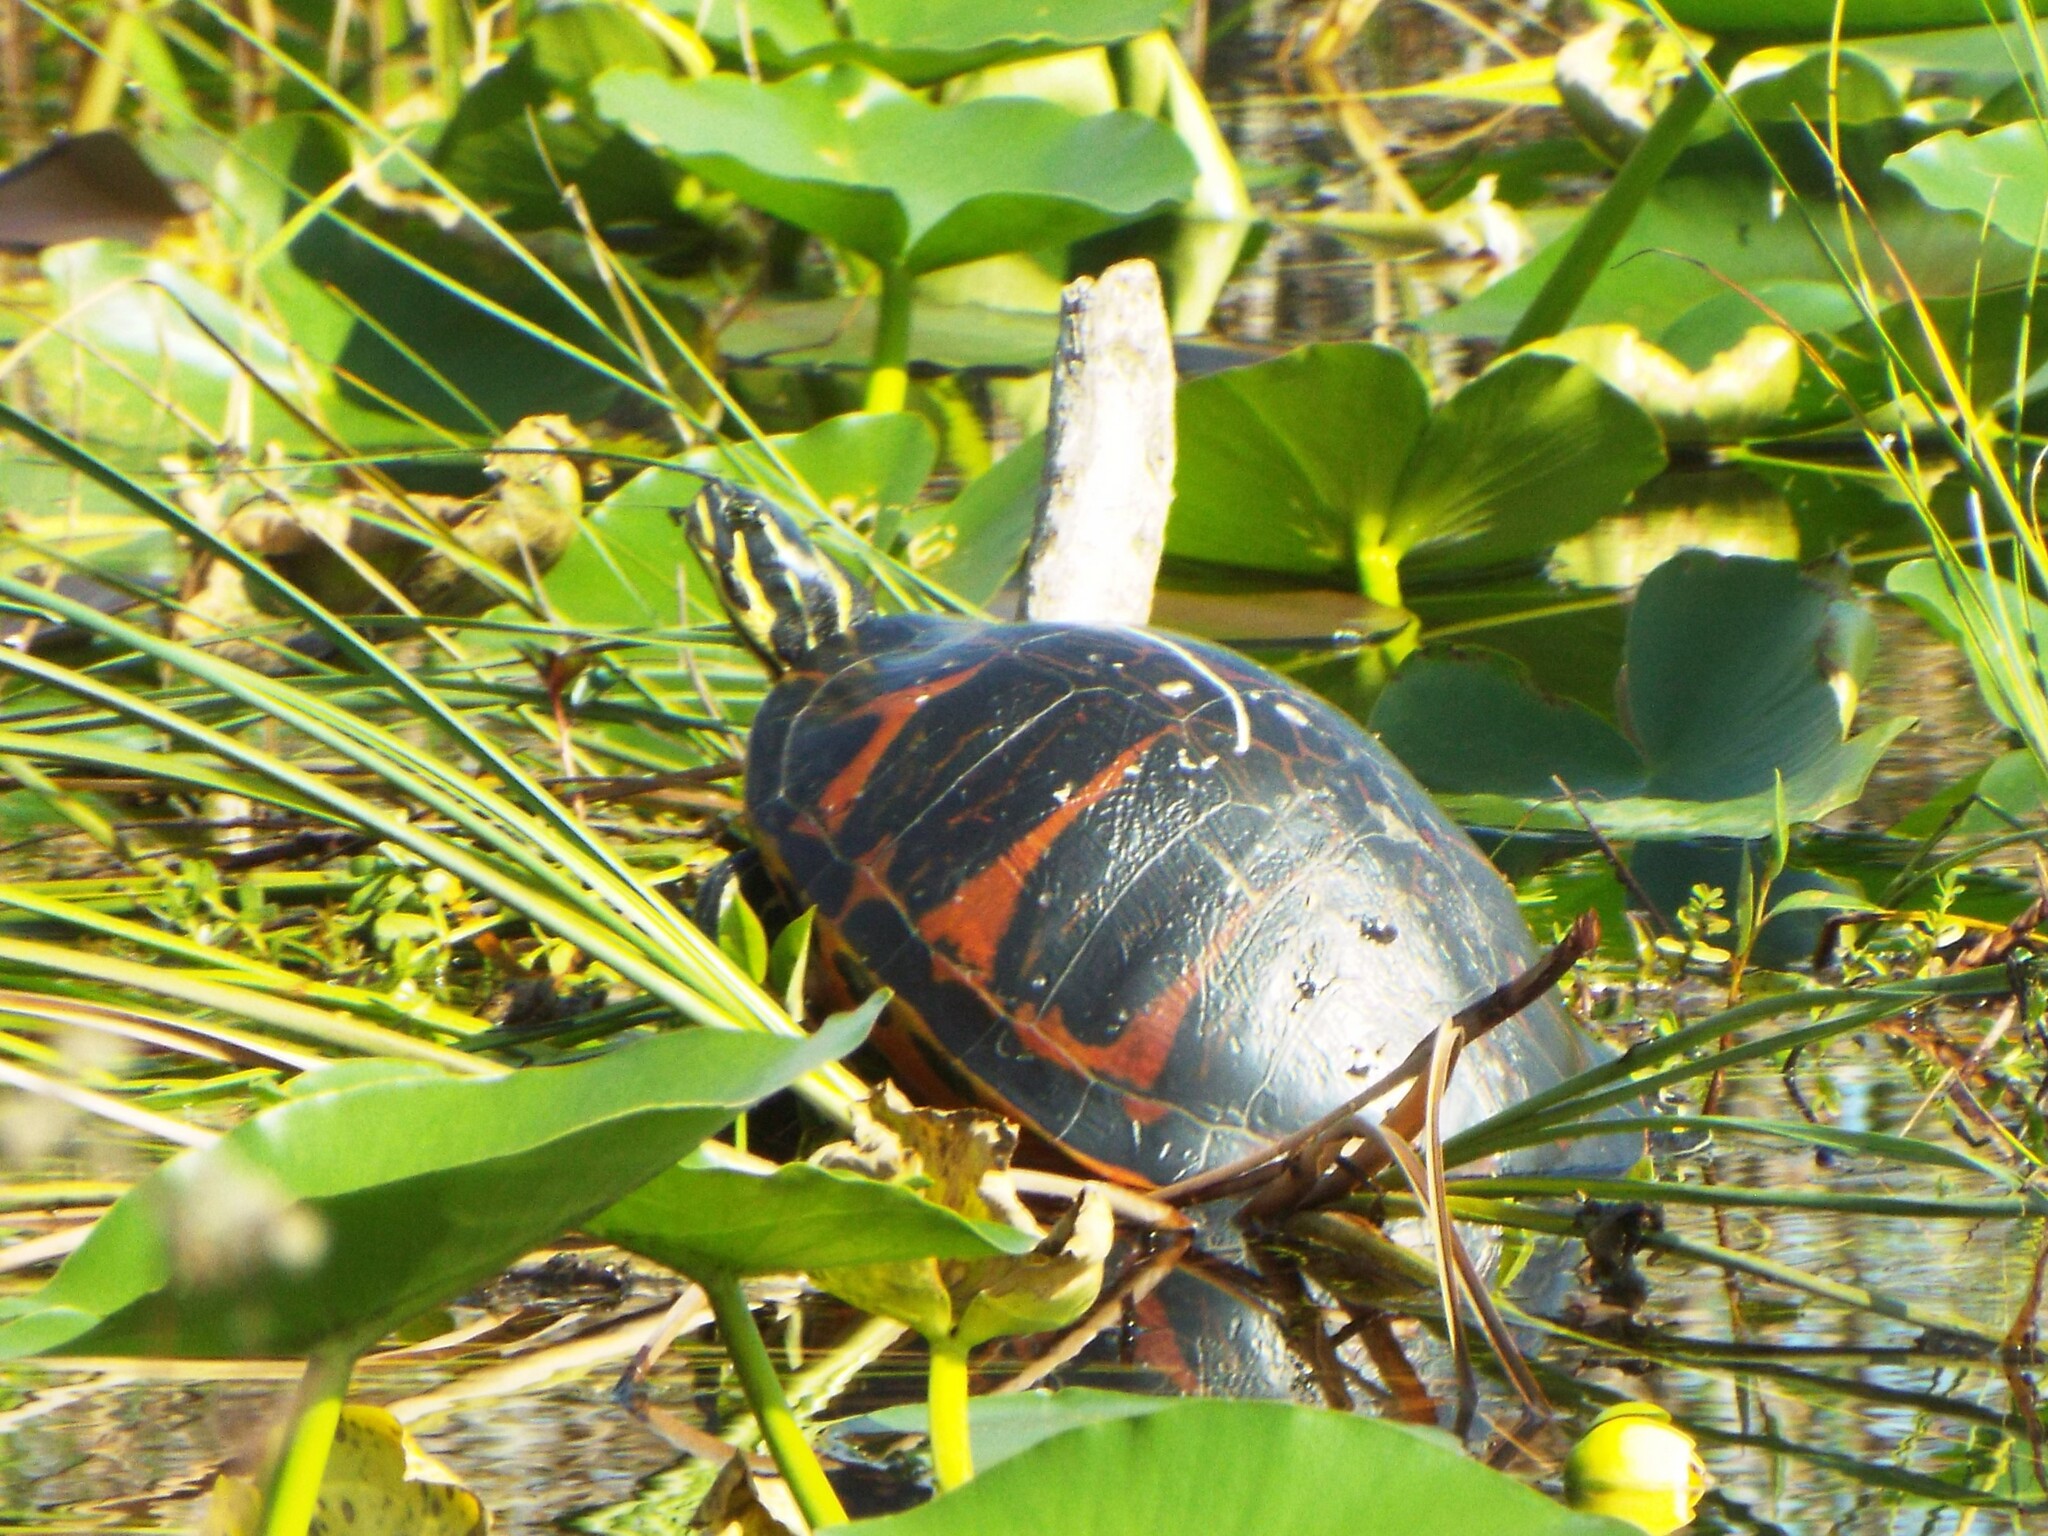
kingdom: Animalia
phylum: Chordata
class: Testudines
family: Emydidae
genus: Pseudemys
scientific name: Pseudemys nelsoni
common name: Florida red-bellied turtle
